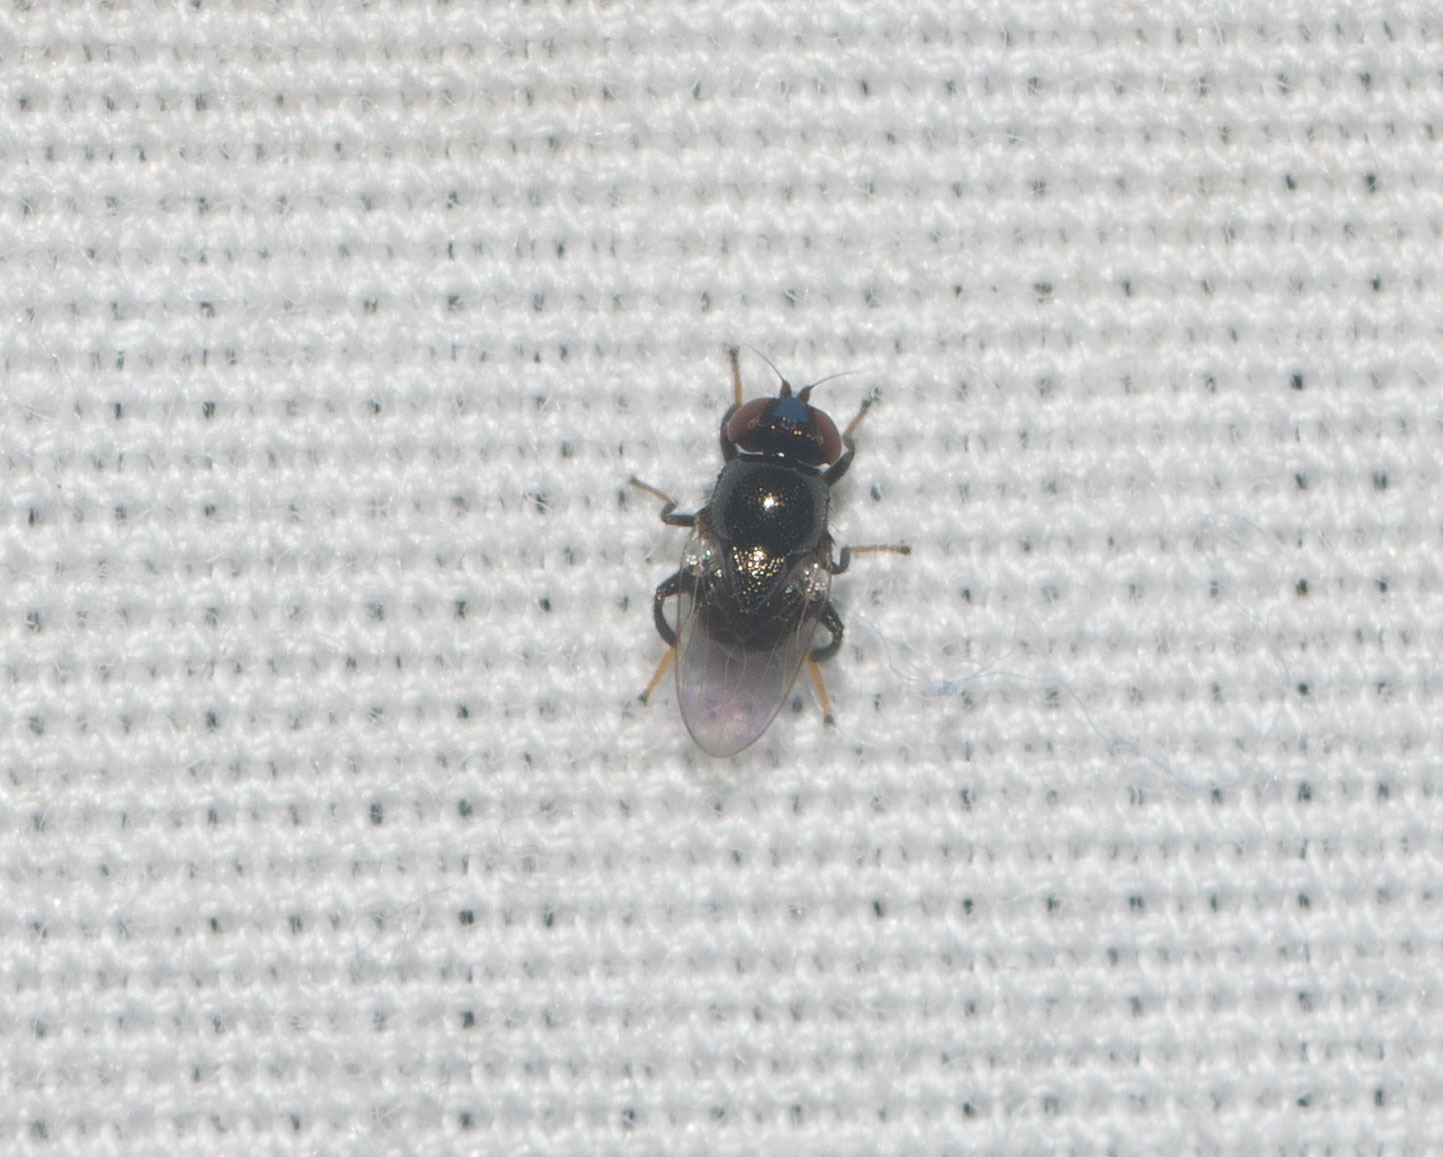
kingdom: Animalia
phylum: Arthropoda
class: Insecta
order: Diptera
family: Chloropidae
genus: Rhodesiella
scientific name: Rhodesiella scutellata
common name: Fly
